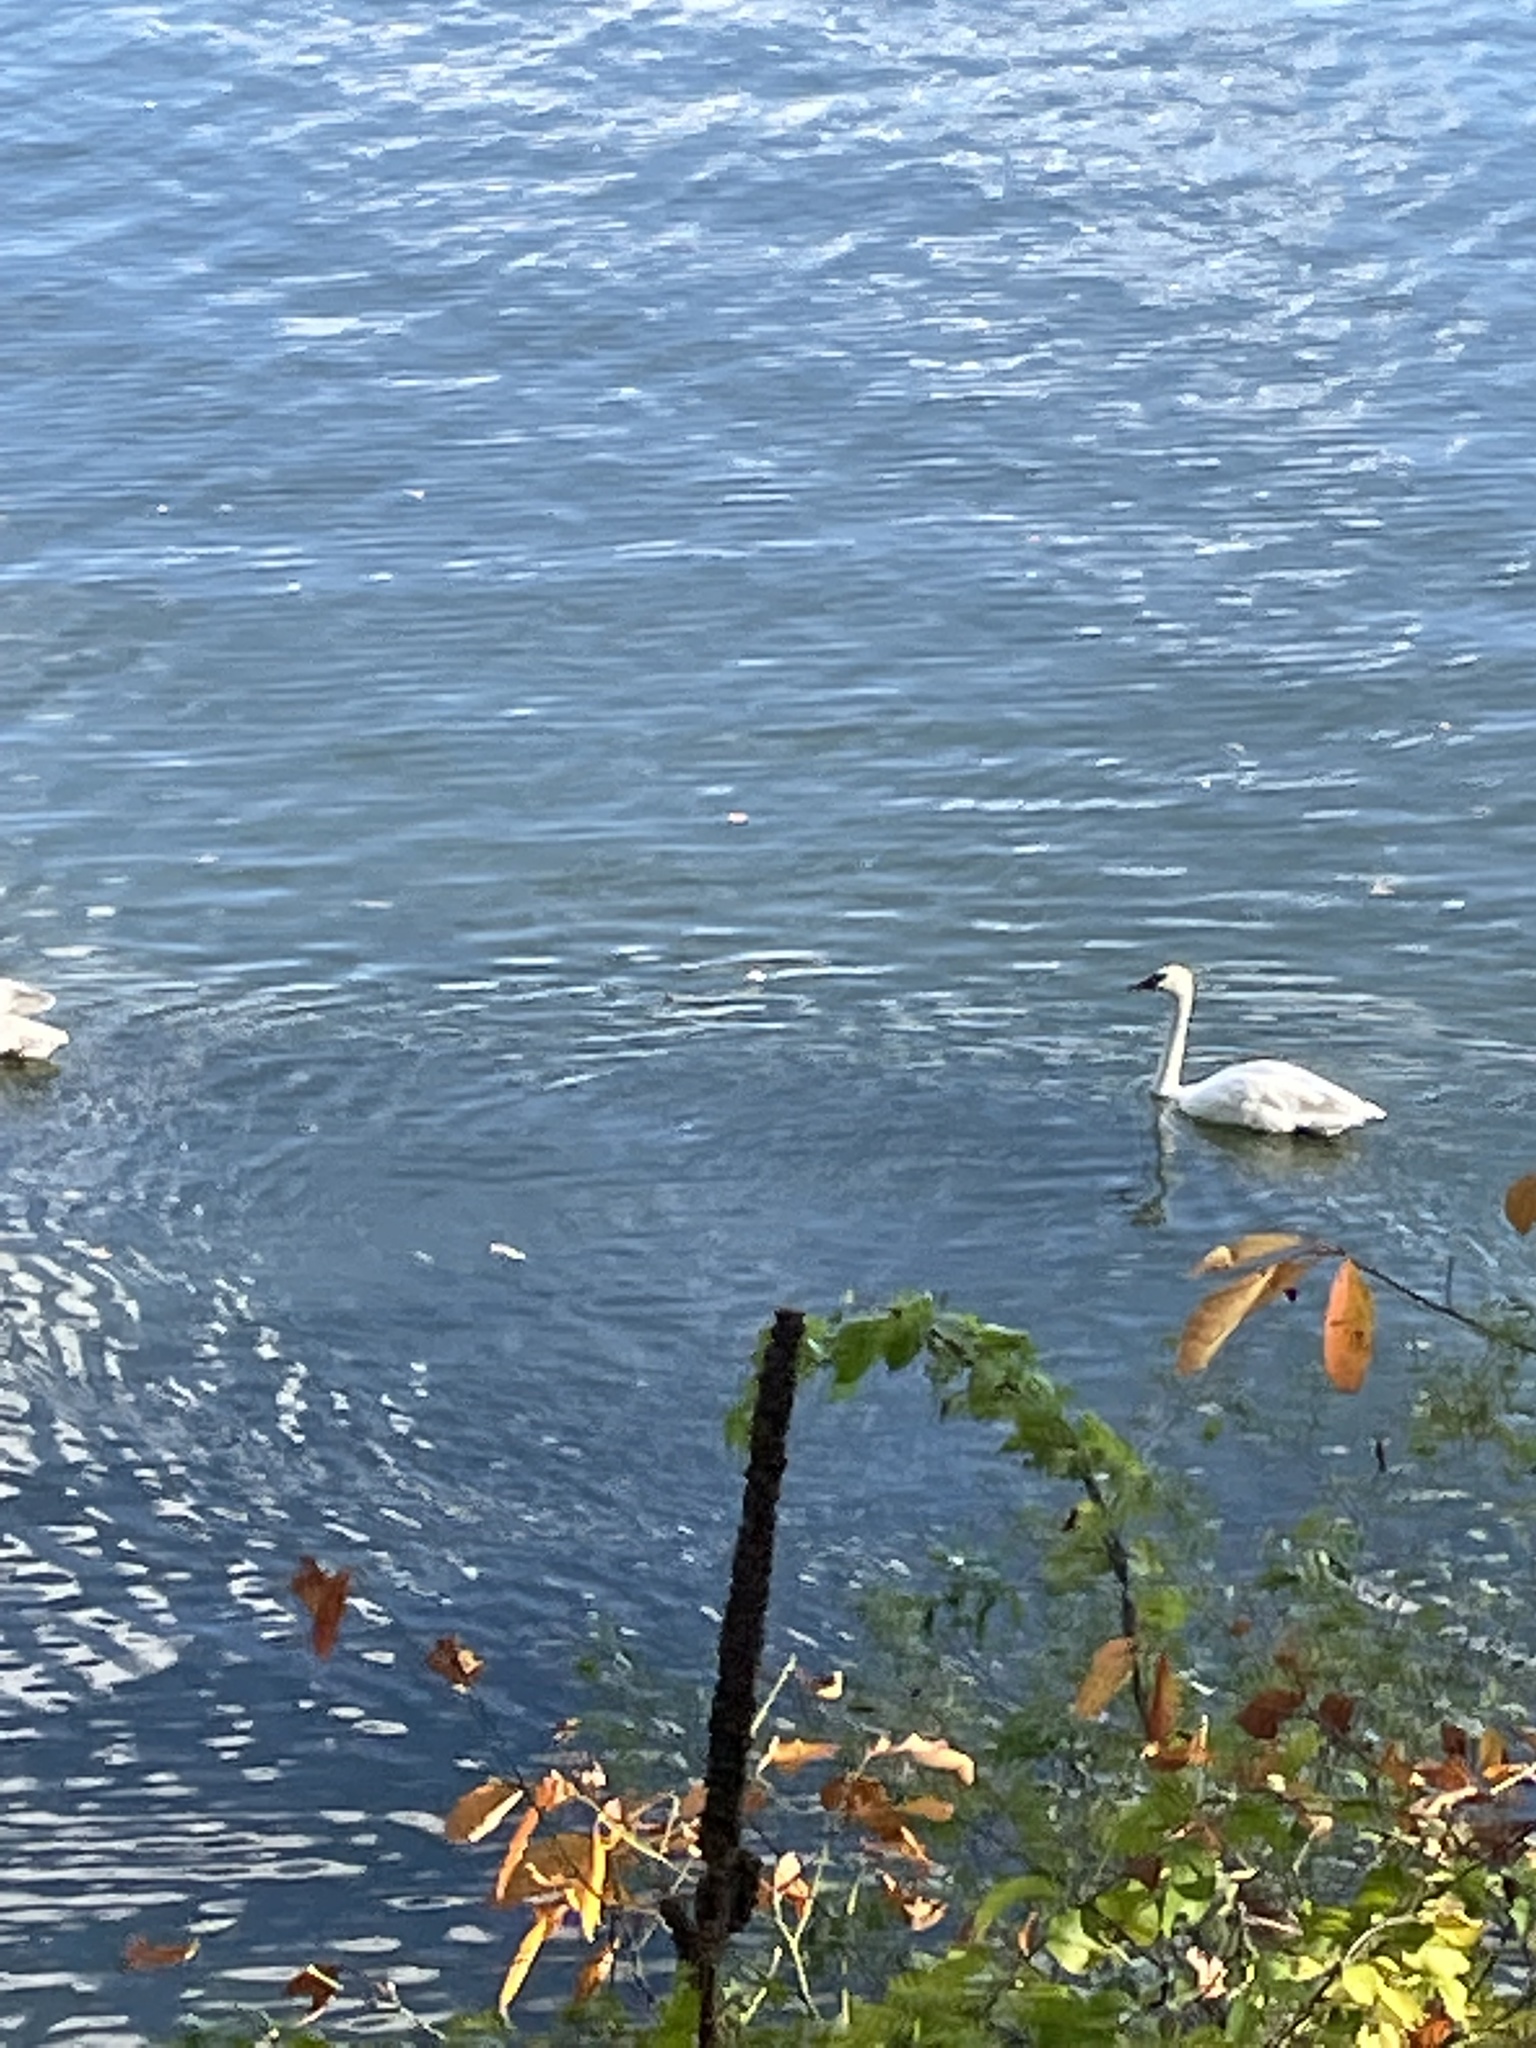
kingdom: Animalia
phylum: Chordata
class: Aves
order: Anseriformes
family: Anatidae
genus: Cygnus
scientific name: Cygnus buccinator
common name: Trumpeter swan
